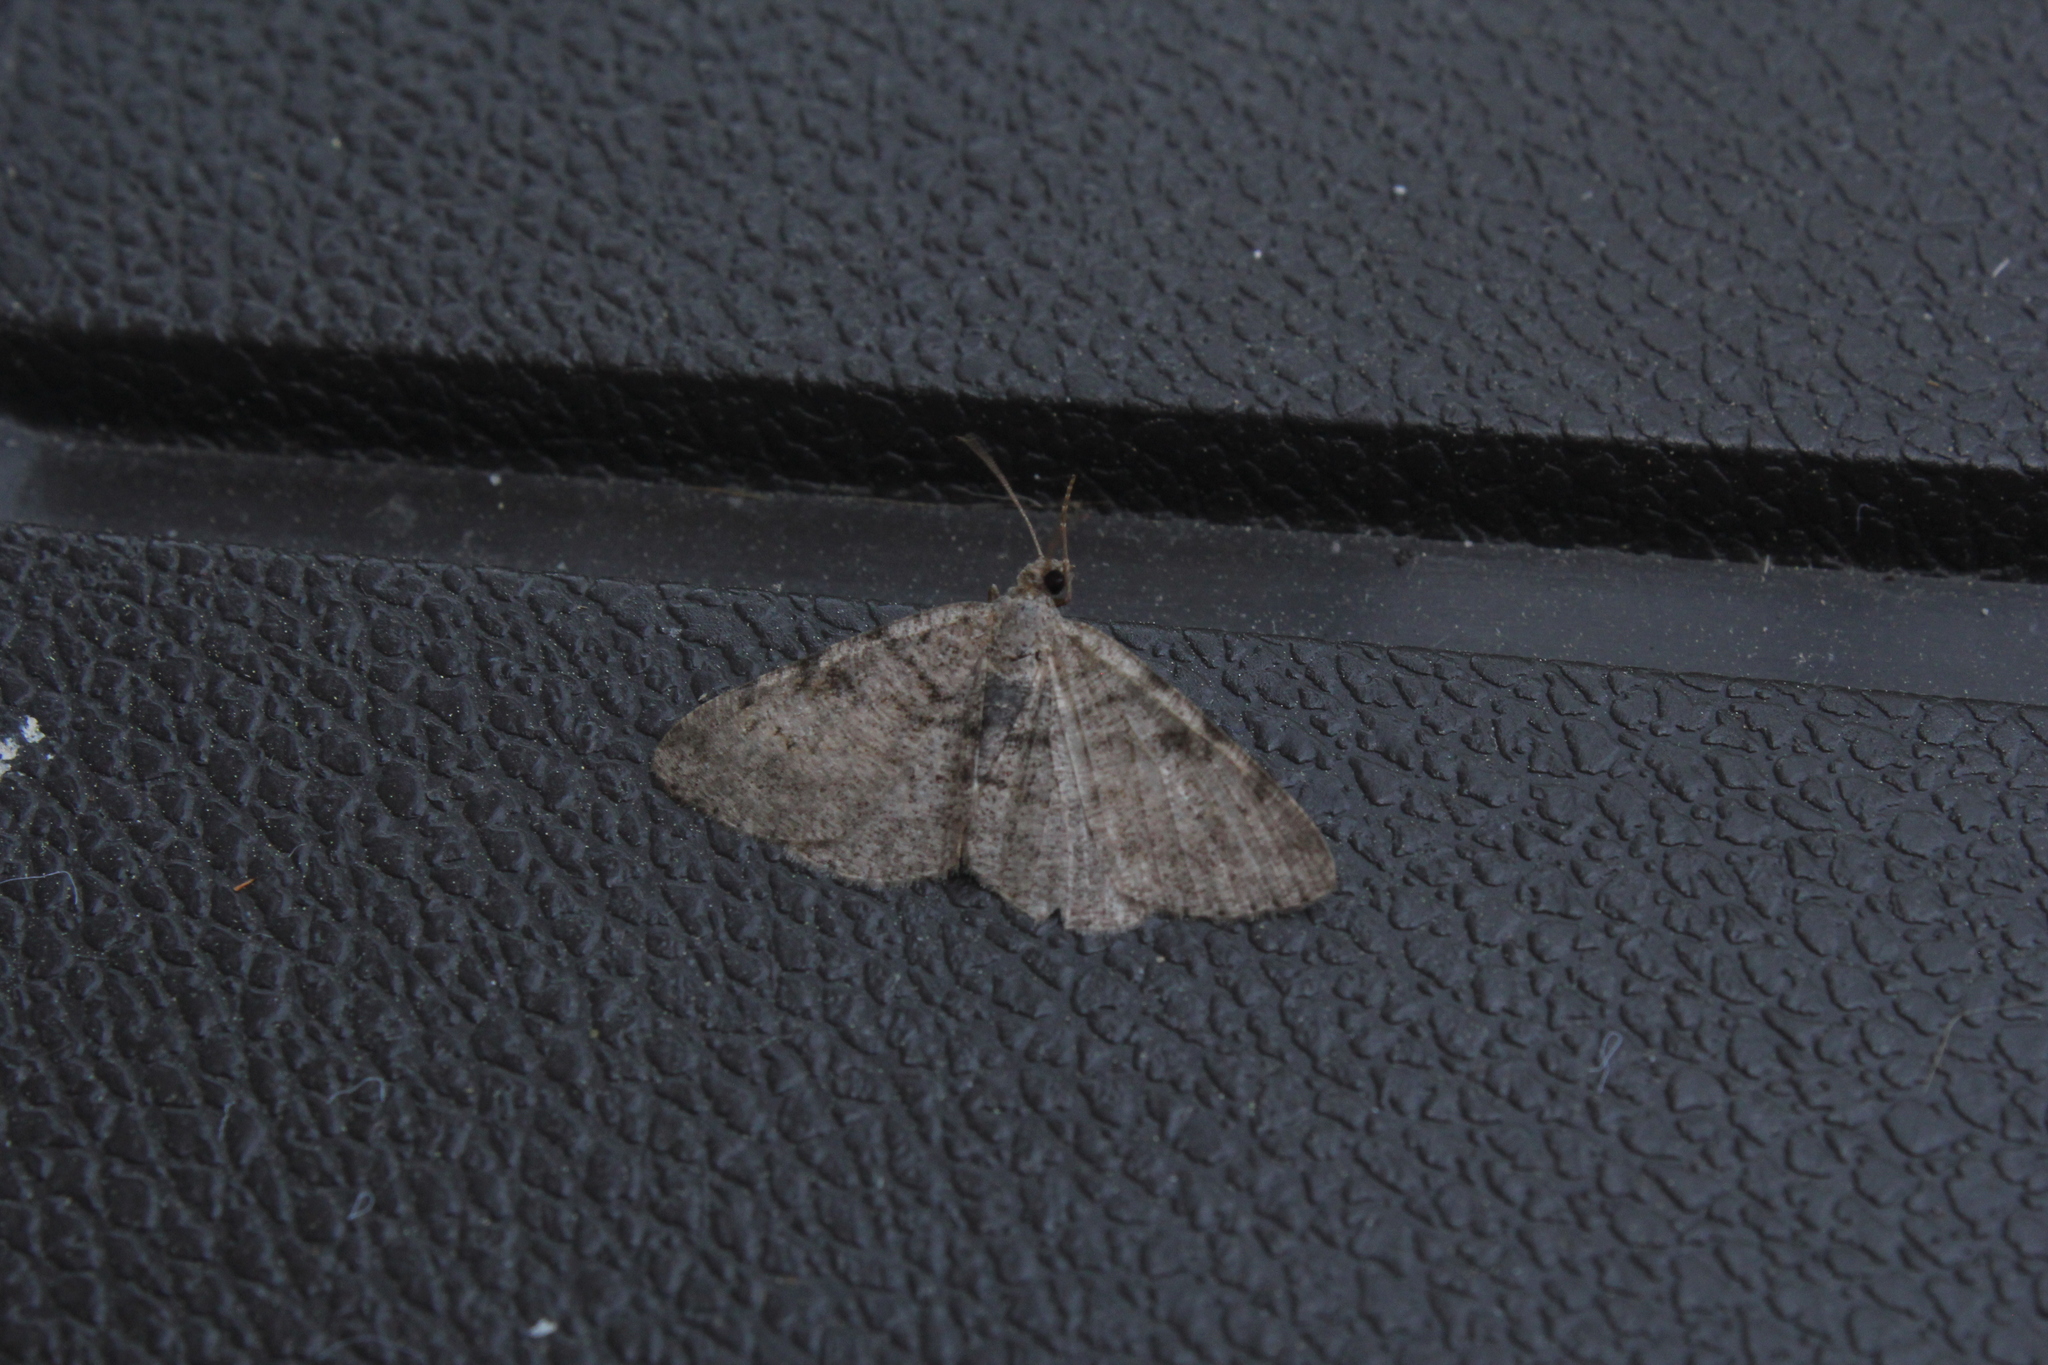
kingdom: Animalia
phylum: Arthropoda
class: Insecta
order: Lepidoptera
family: Geometridae
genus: Digrammia
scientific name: Digrammia gnophosaria
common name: Hollow-spotted angle
